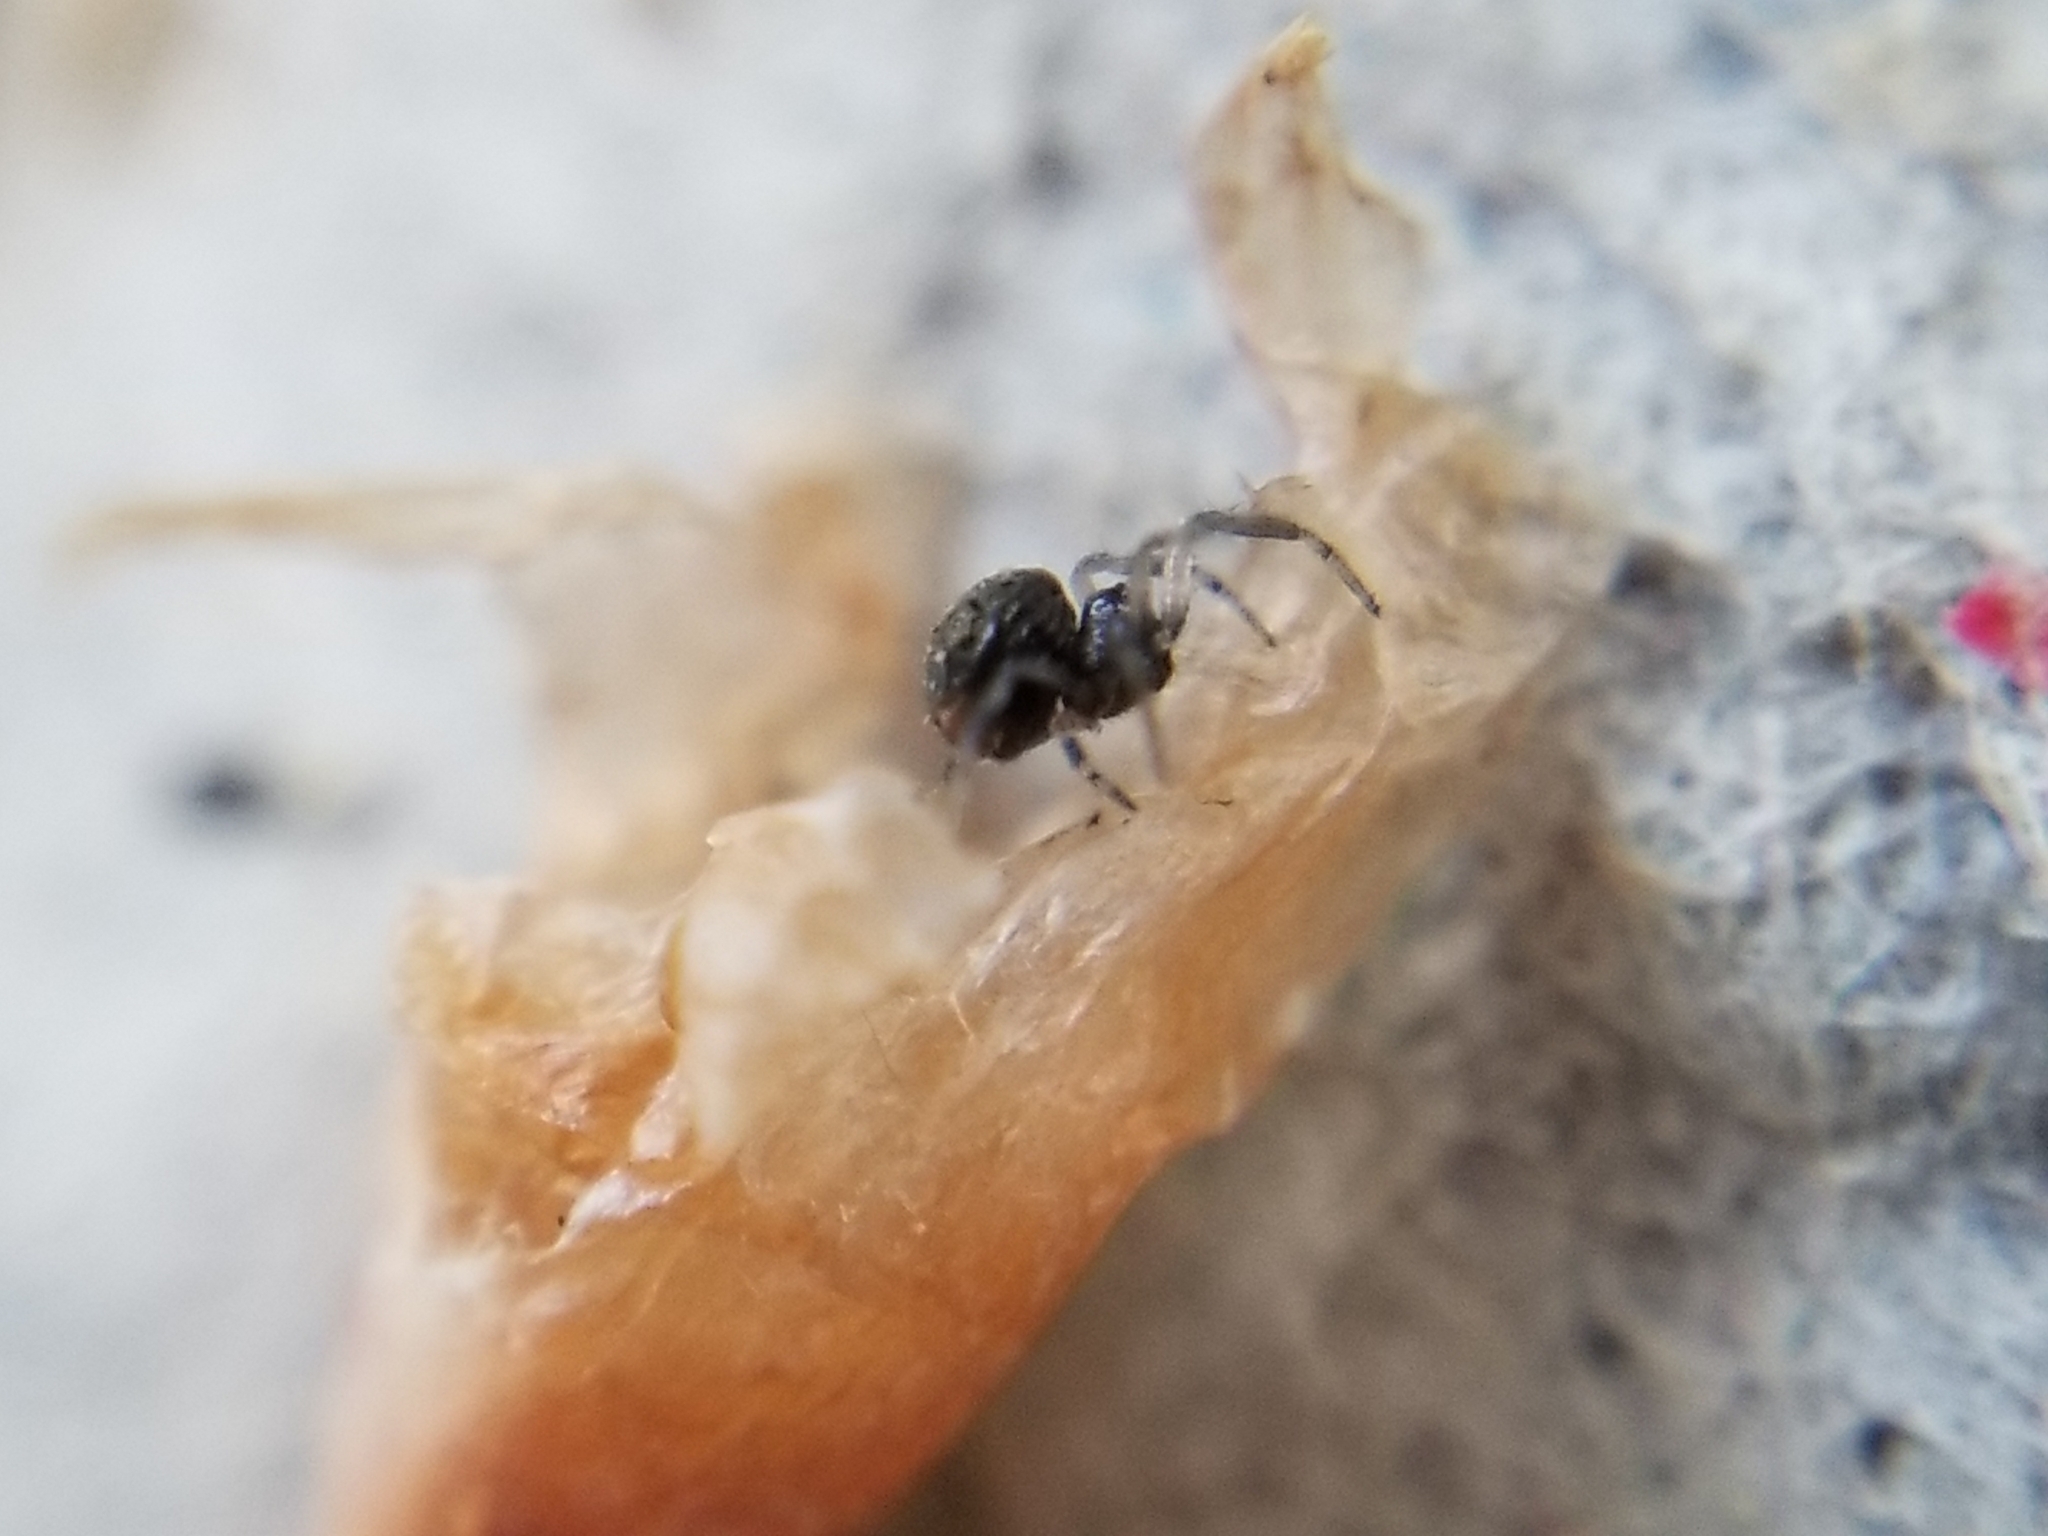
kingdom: Animalia
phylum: Arthropoda
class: Arachnida
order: Araneae
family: Anapidae
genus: Gertschanapis
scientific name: Gertschanapis shantzi
